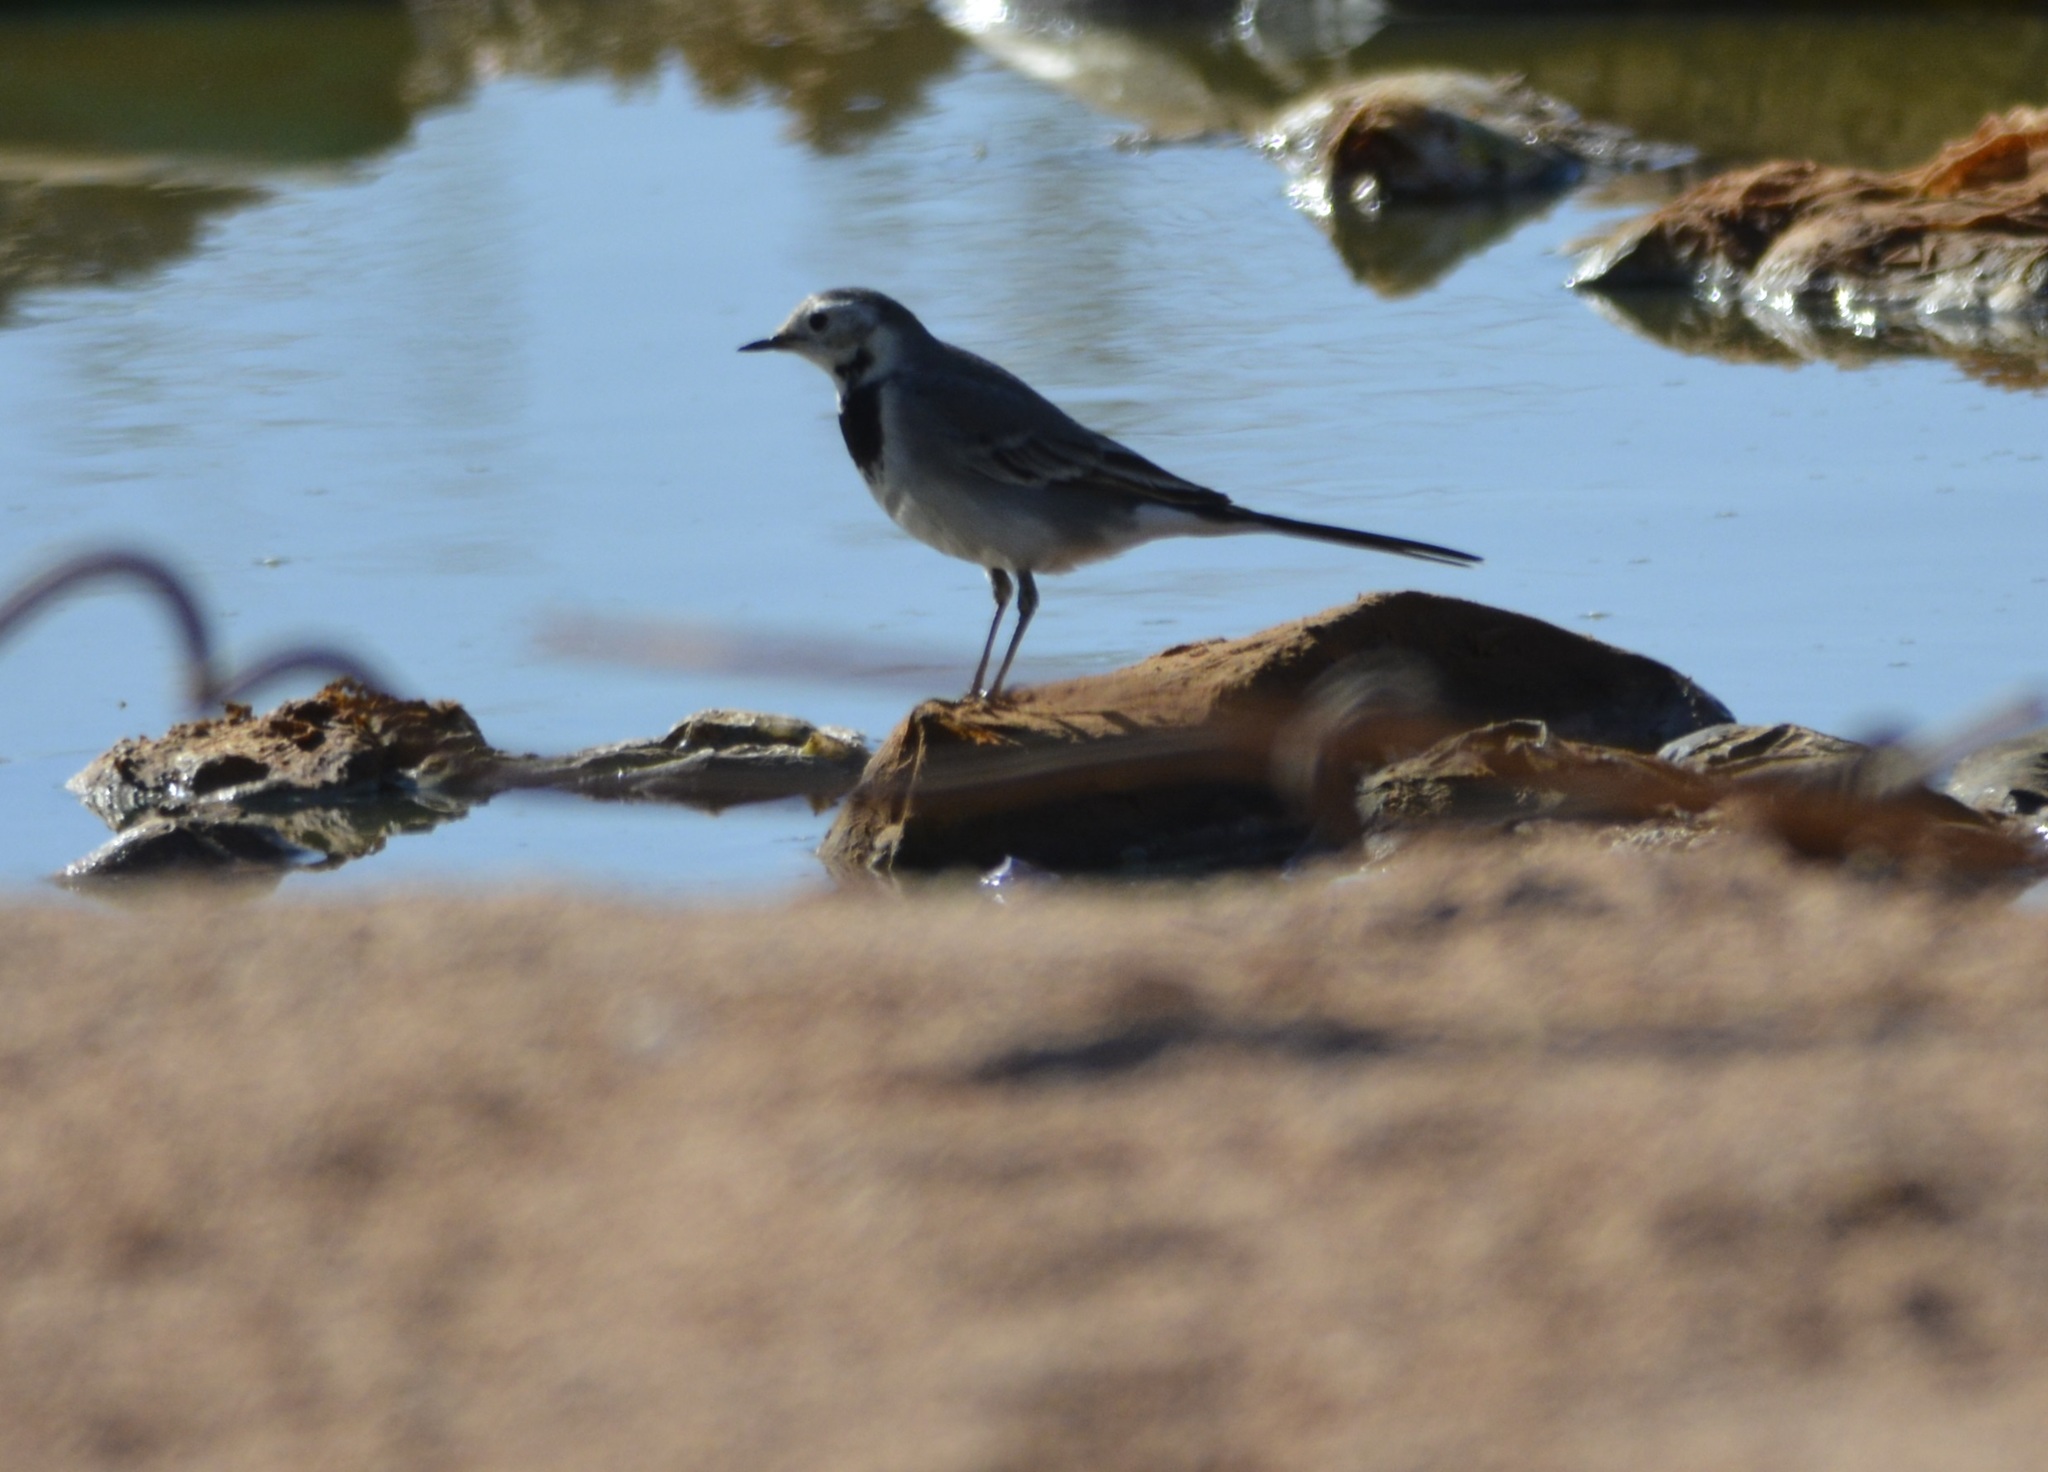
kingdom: Animalia
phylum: Chordata
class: Aves
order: Passeriformes
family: Motacillidae
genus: Motacilla
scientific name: Motacilla alba
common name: White wagtail
